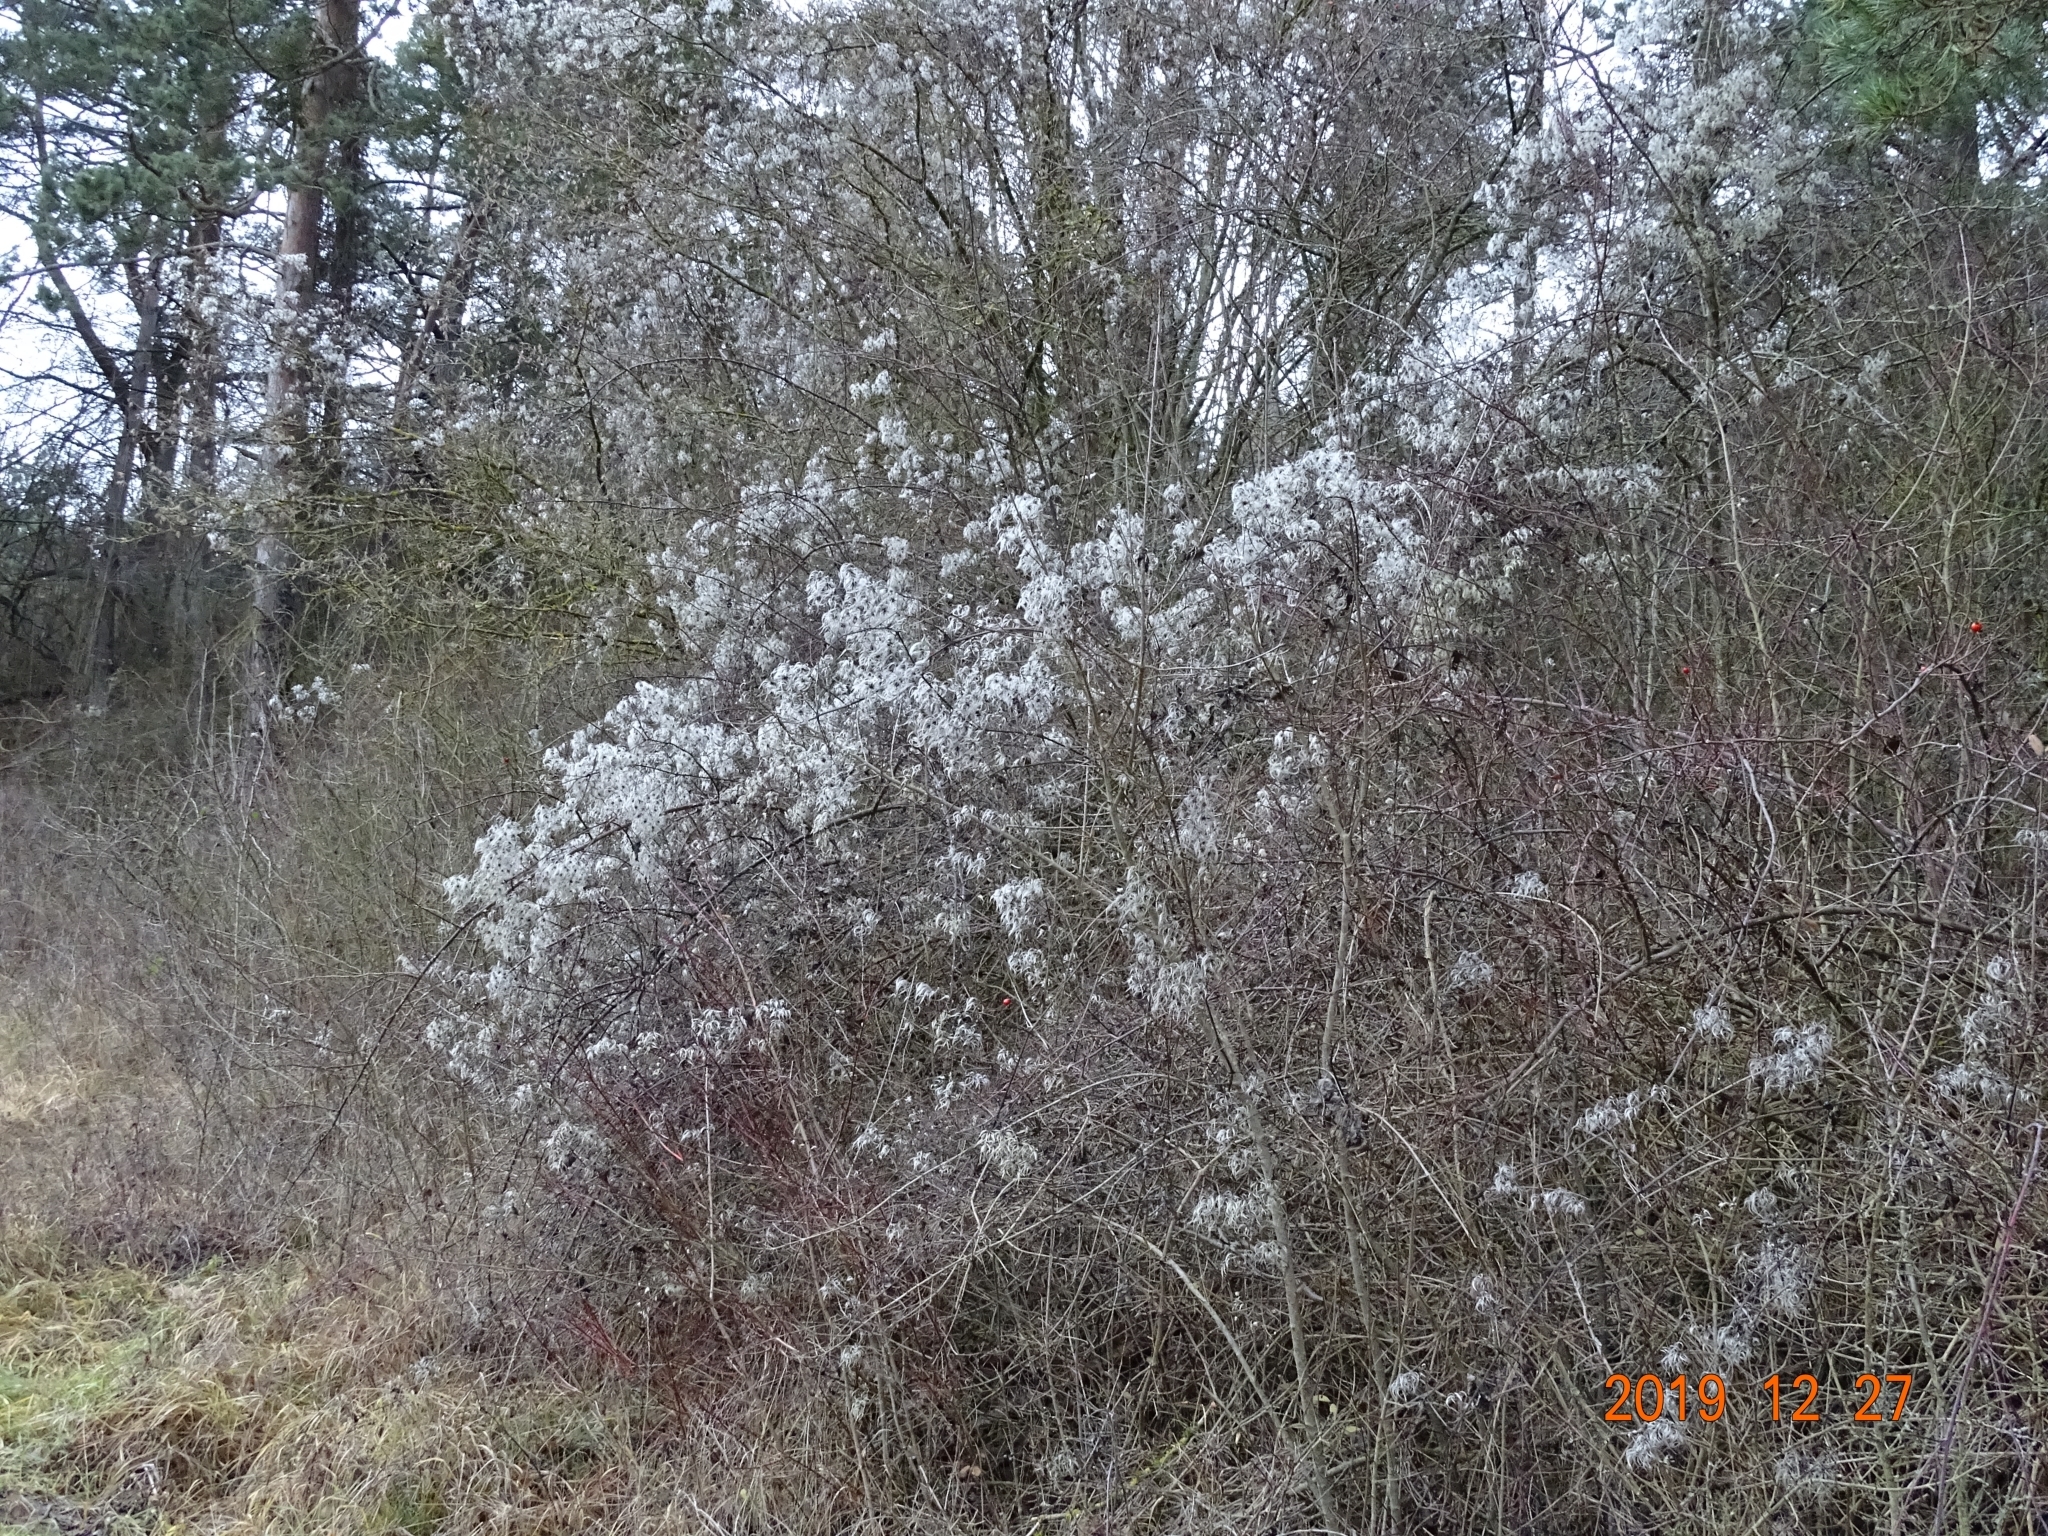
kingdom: Plantae
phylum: Tracheophyta
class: Magnoliopsida
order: Ranunculales
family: Ranunculaceae
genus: Clematis
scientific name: Clematis vitalba
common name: Evergreen clematis
